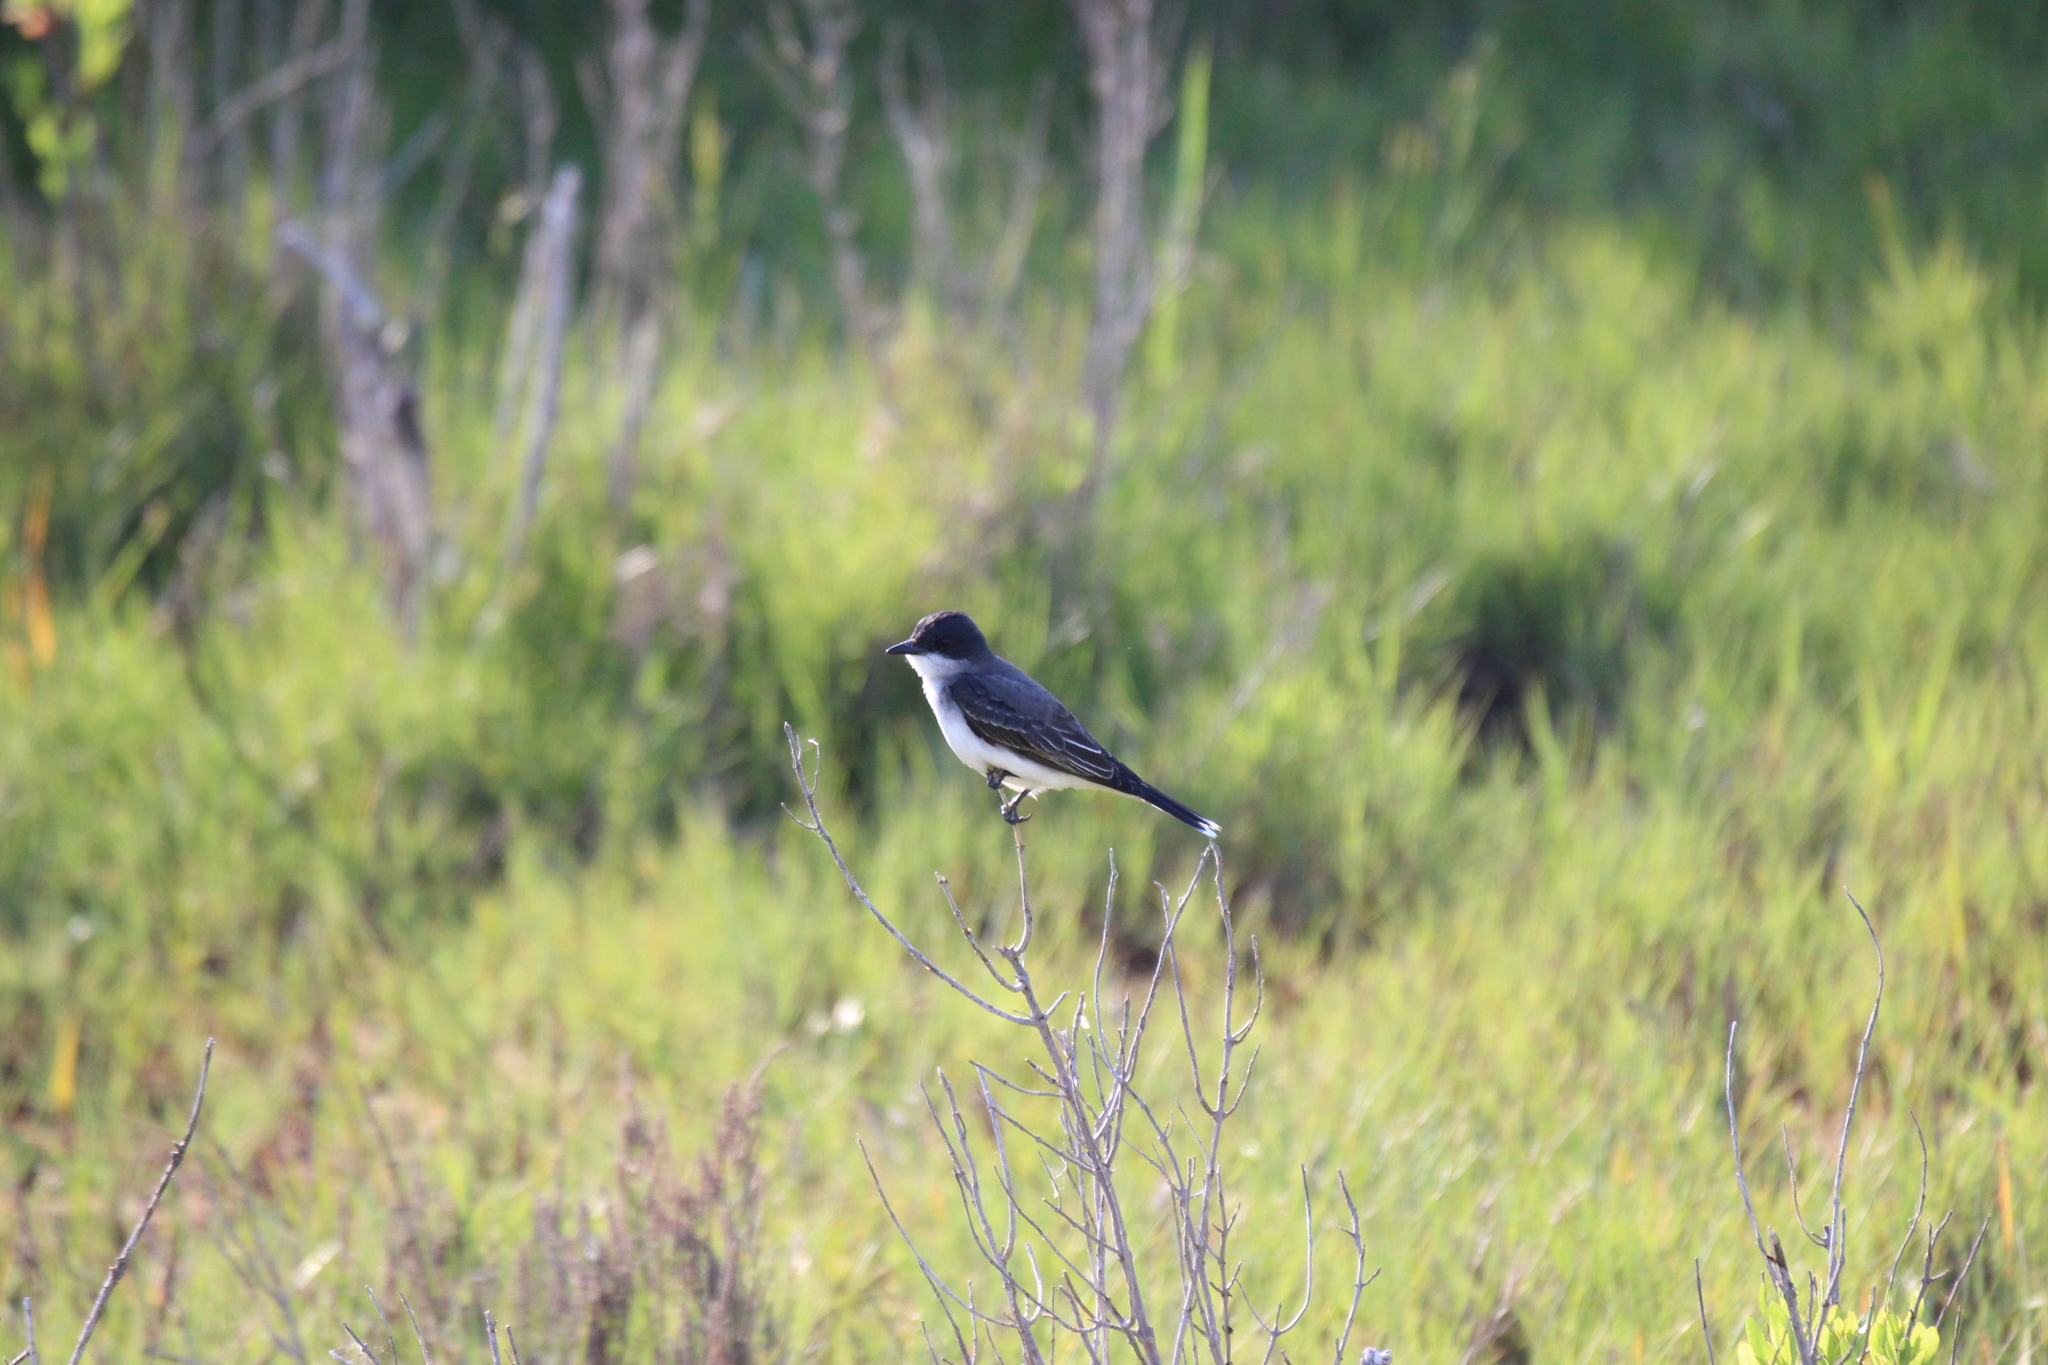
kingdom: Animalia
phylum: Chordata
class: Aves
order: Passeriformes
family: Tyrannidae
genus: Tyrannus
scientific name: Tyrannus tyrannus
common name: Eastern kingbird
